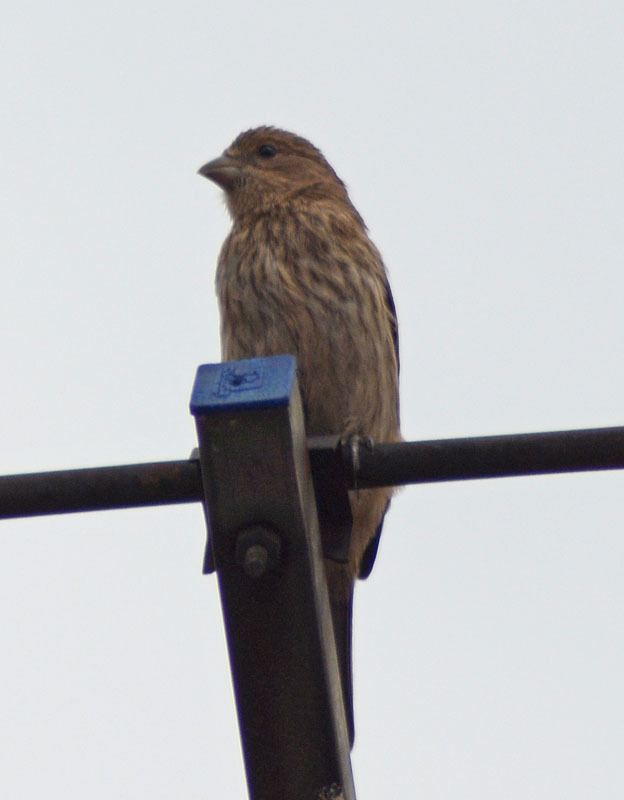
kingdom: Animalia
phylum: Chordata
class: Aves
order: Passeriformes
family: Fringillidae
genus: Haemorhous
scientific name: Haemorhous mexicanus
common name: House finch
